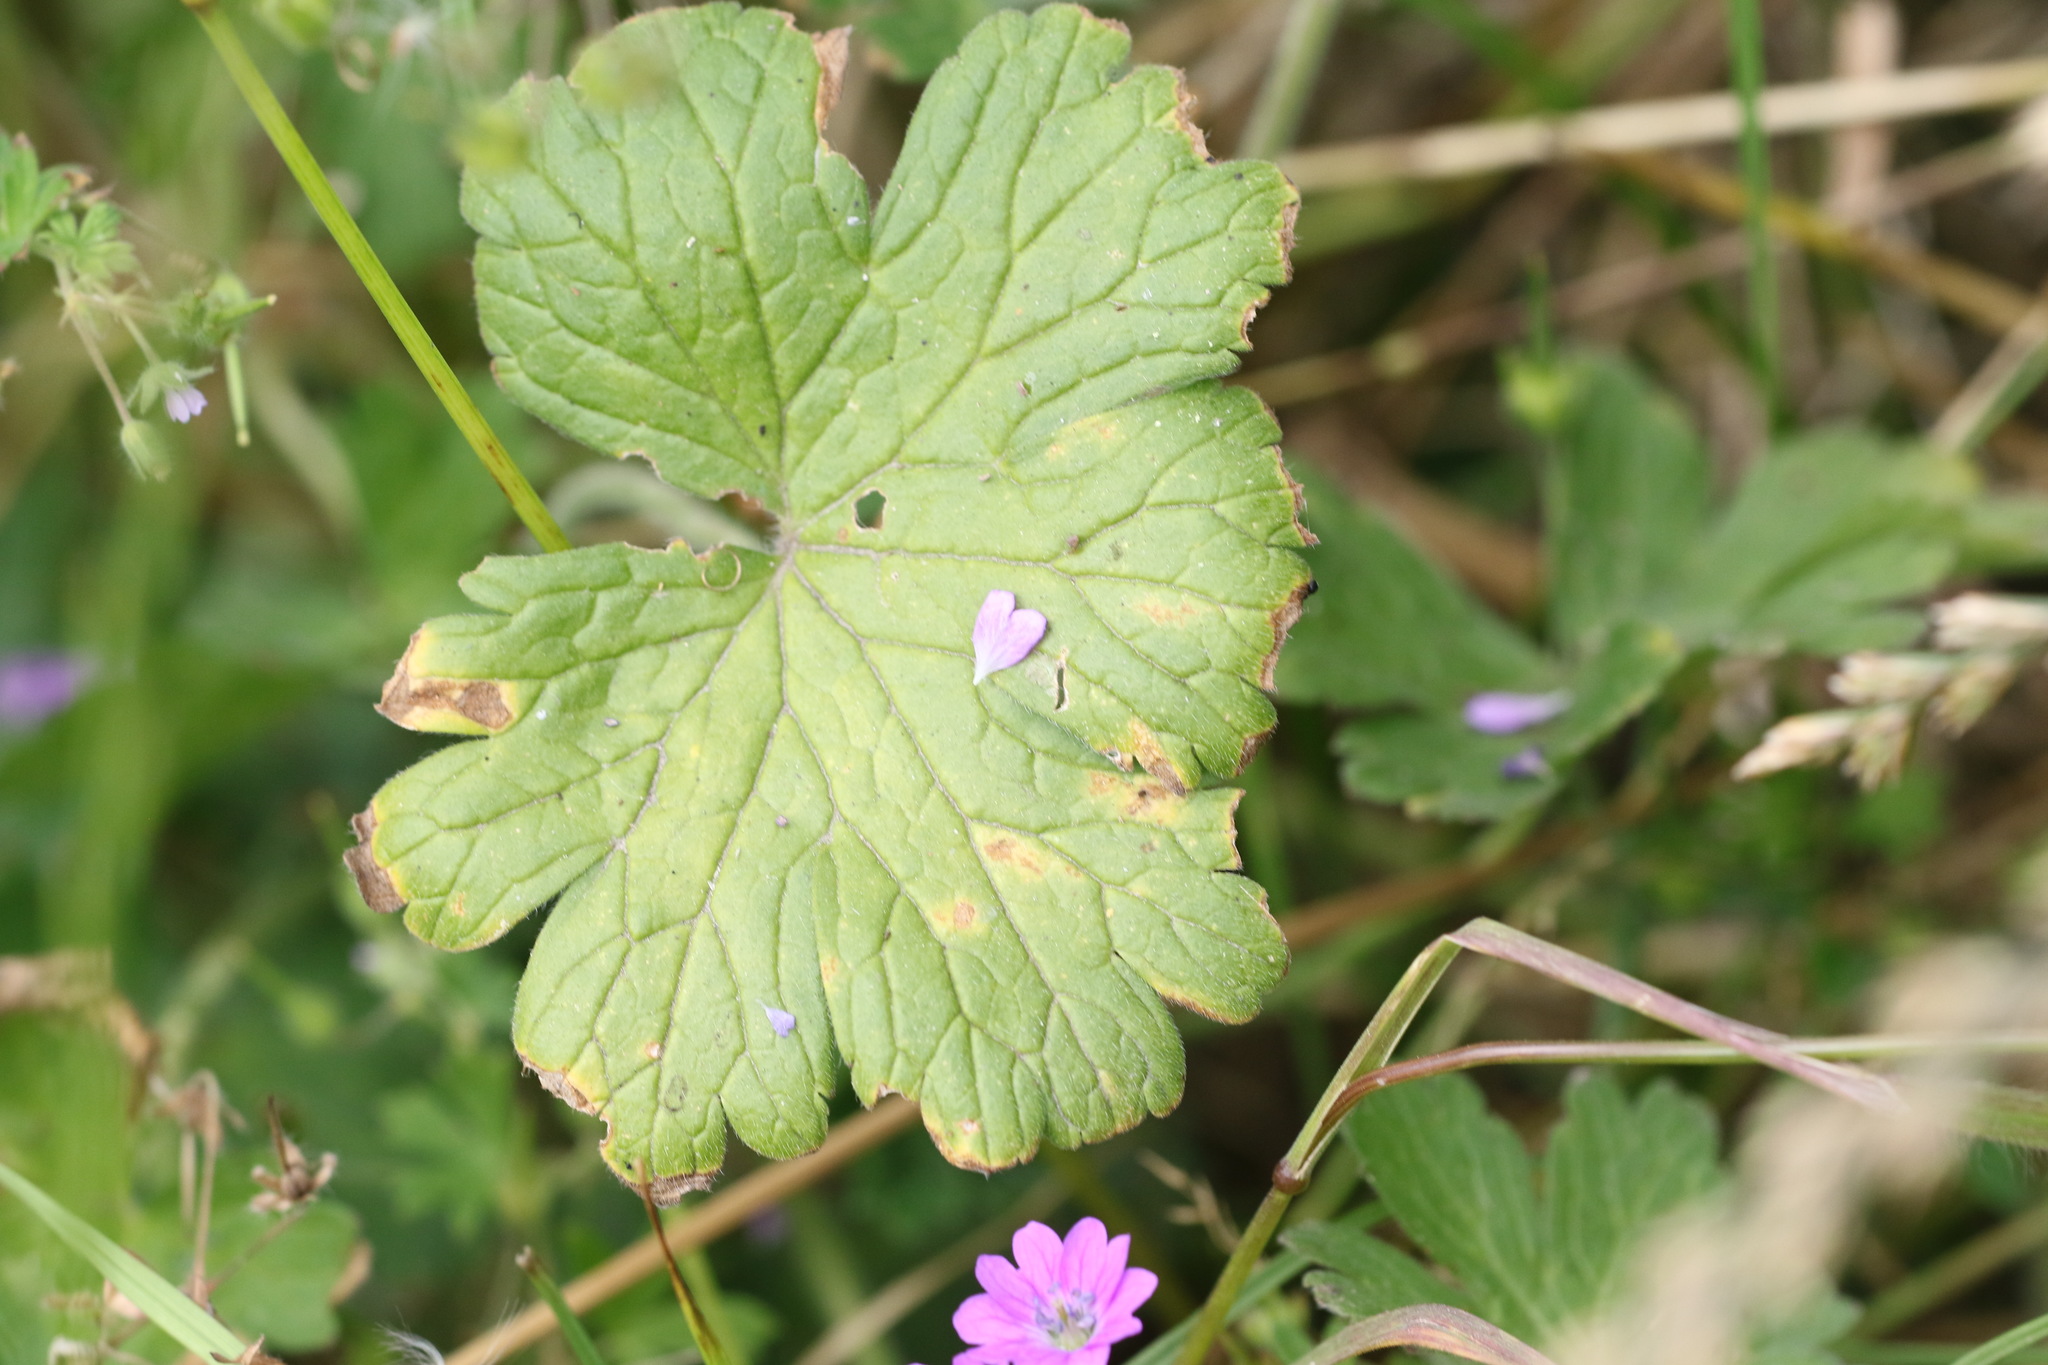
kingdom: Plantae
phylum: Tracheophyta
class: Magnoliopsida
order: Geraniales
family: Geraniaceae
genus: Geranium
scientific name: Geranium molle
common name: Dove's-foot crane's-bill
